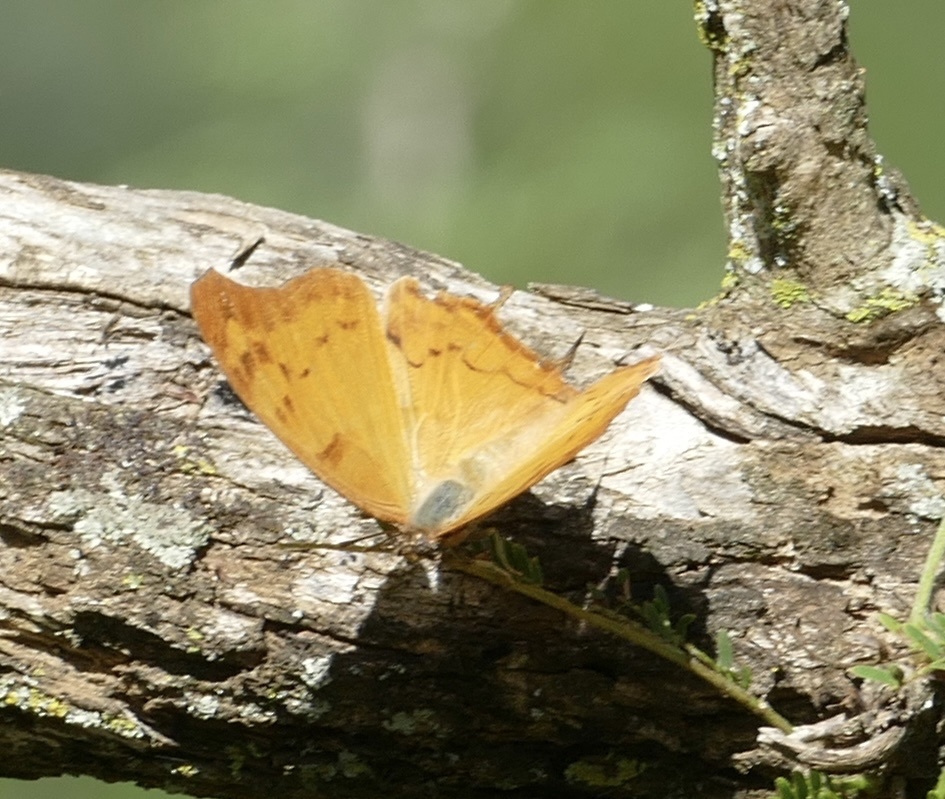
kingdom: Animalia
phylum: Arthropoda
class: Insecta
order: Lepidoptera
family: Nymphalidae
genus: Polyura
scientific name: Polyura
